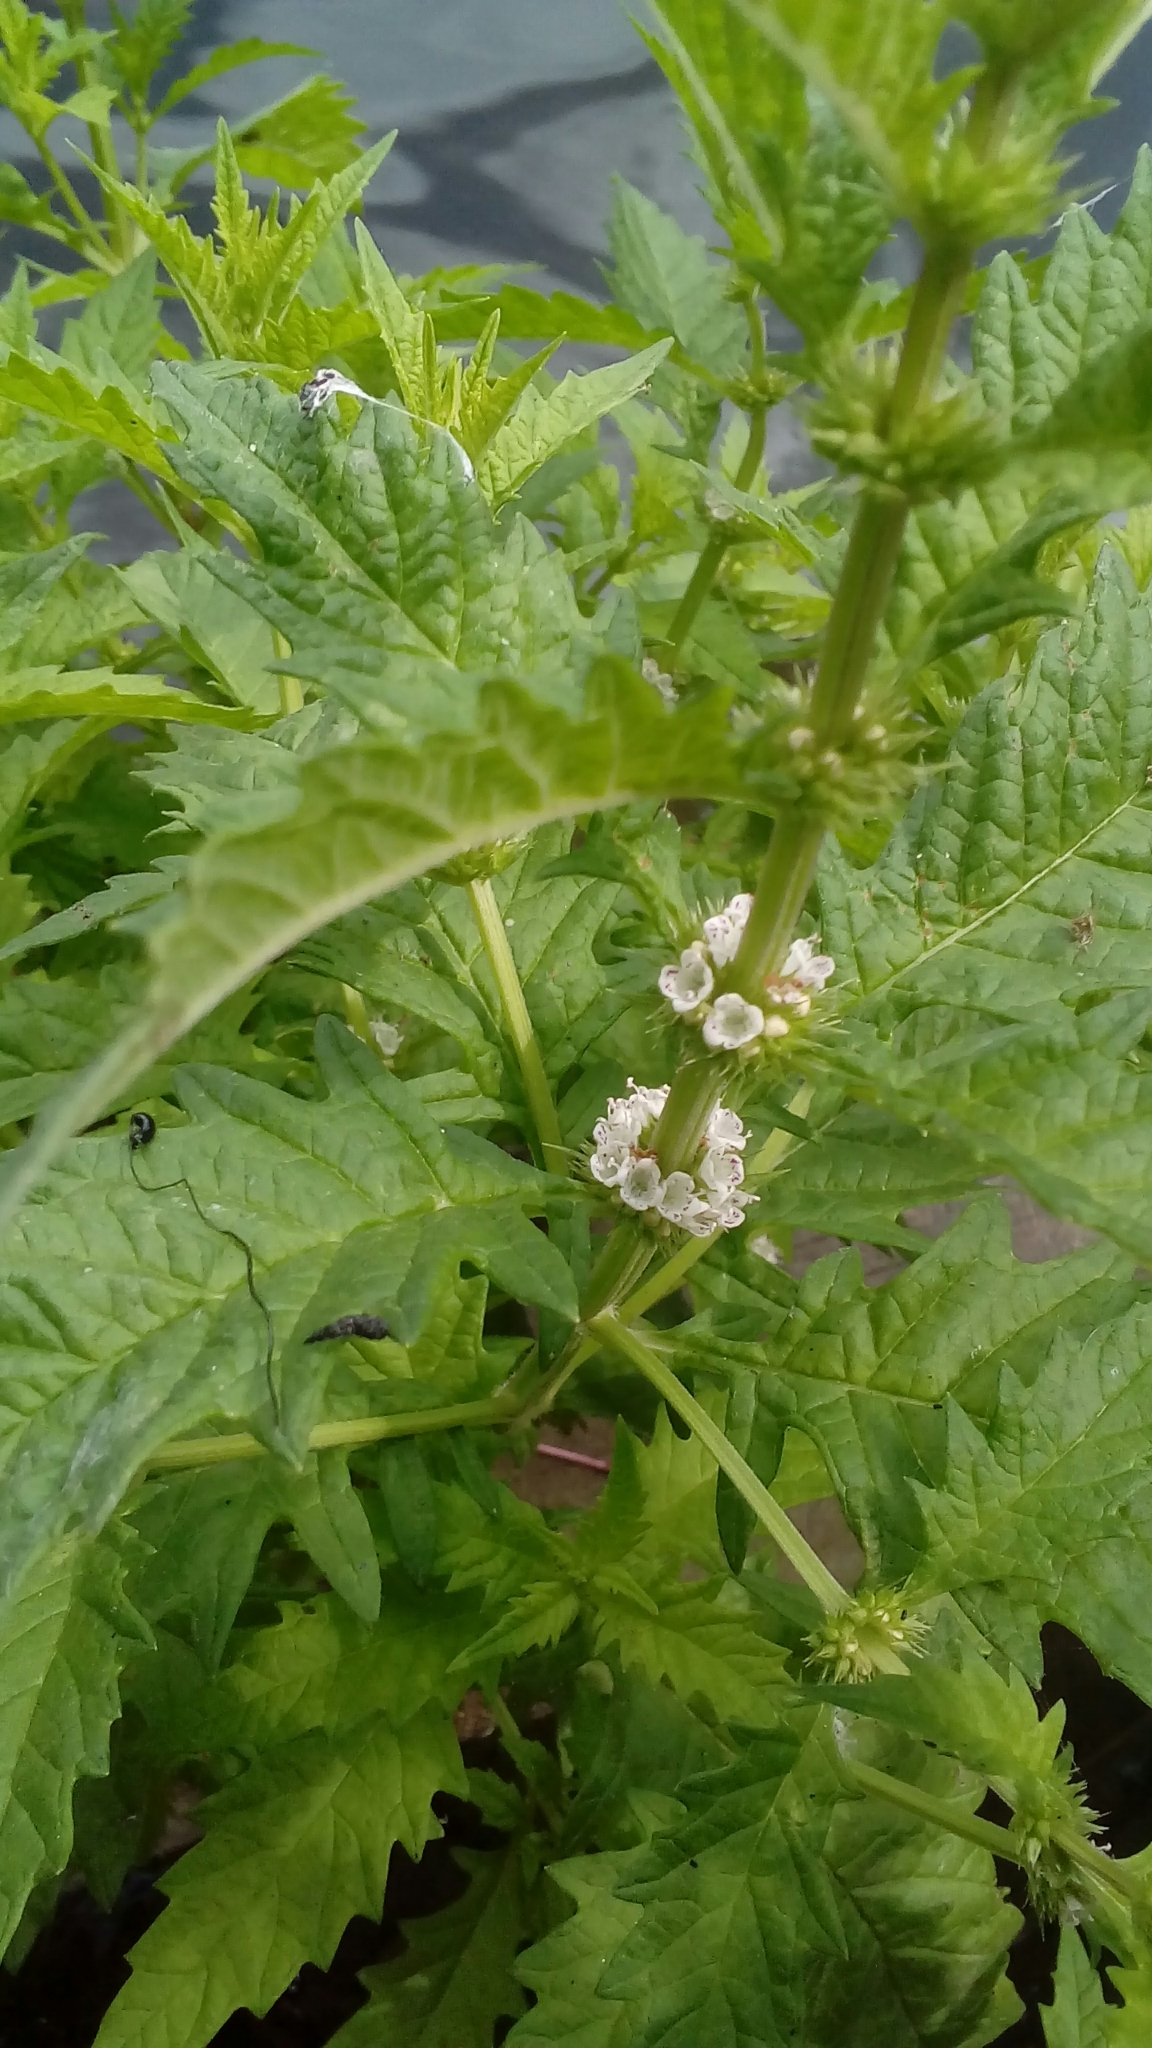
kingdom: Plantae
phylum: Tracheophyta
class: Magnoliopsida
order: Lamiales
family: Lamiaceae
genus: Lycopus
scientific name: Lycopus europaeus
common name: European bugleweed
